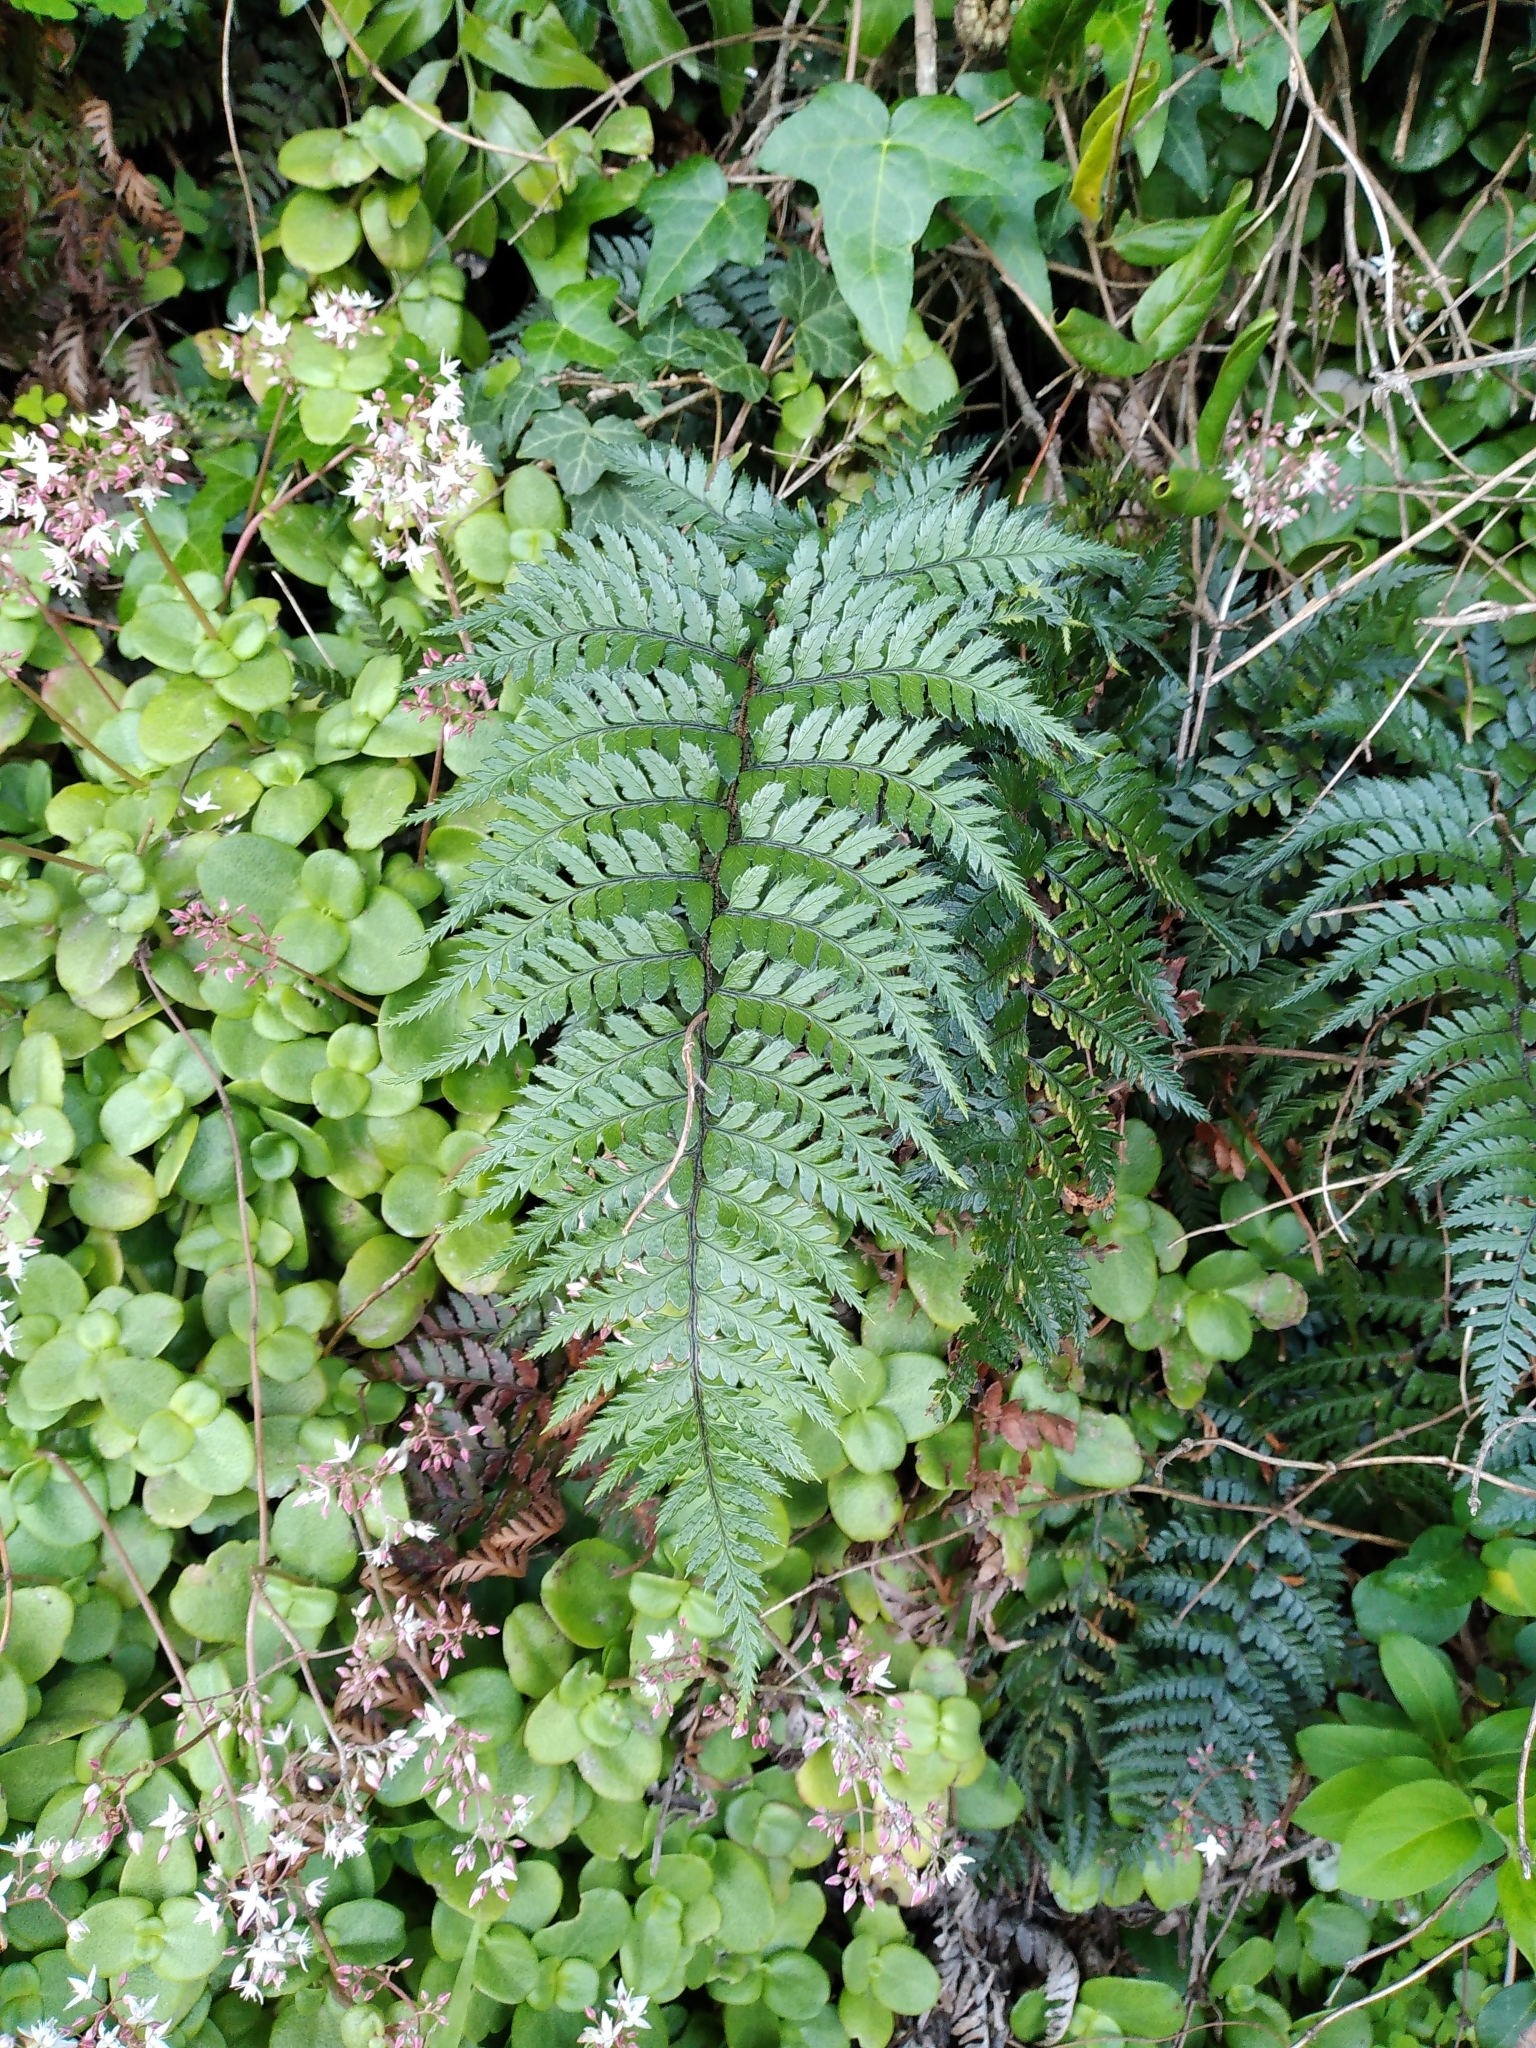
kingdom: Plantae
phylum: Tracheophyta
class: Polypodiopsida
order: Polypodiales
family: Dryopteridaceae
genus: Polystichum
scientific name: Polystichum neozelandicum
